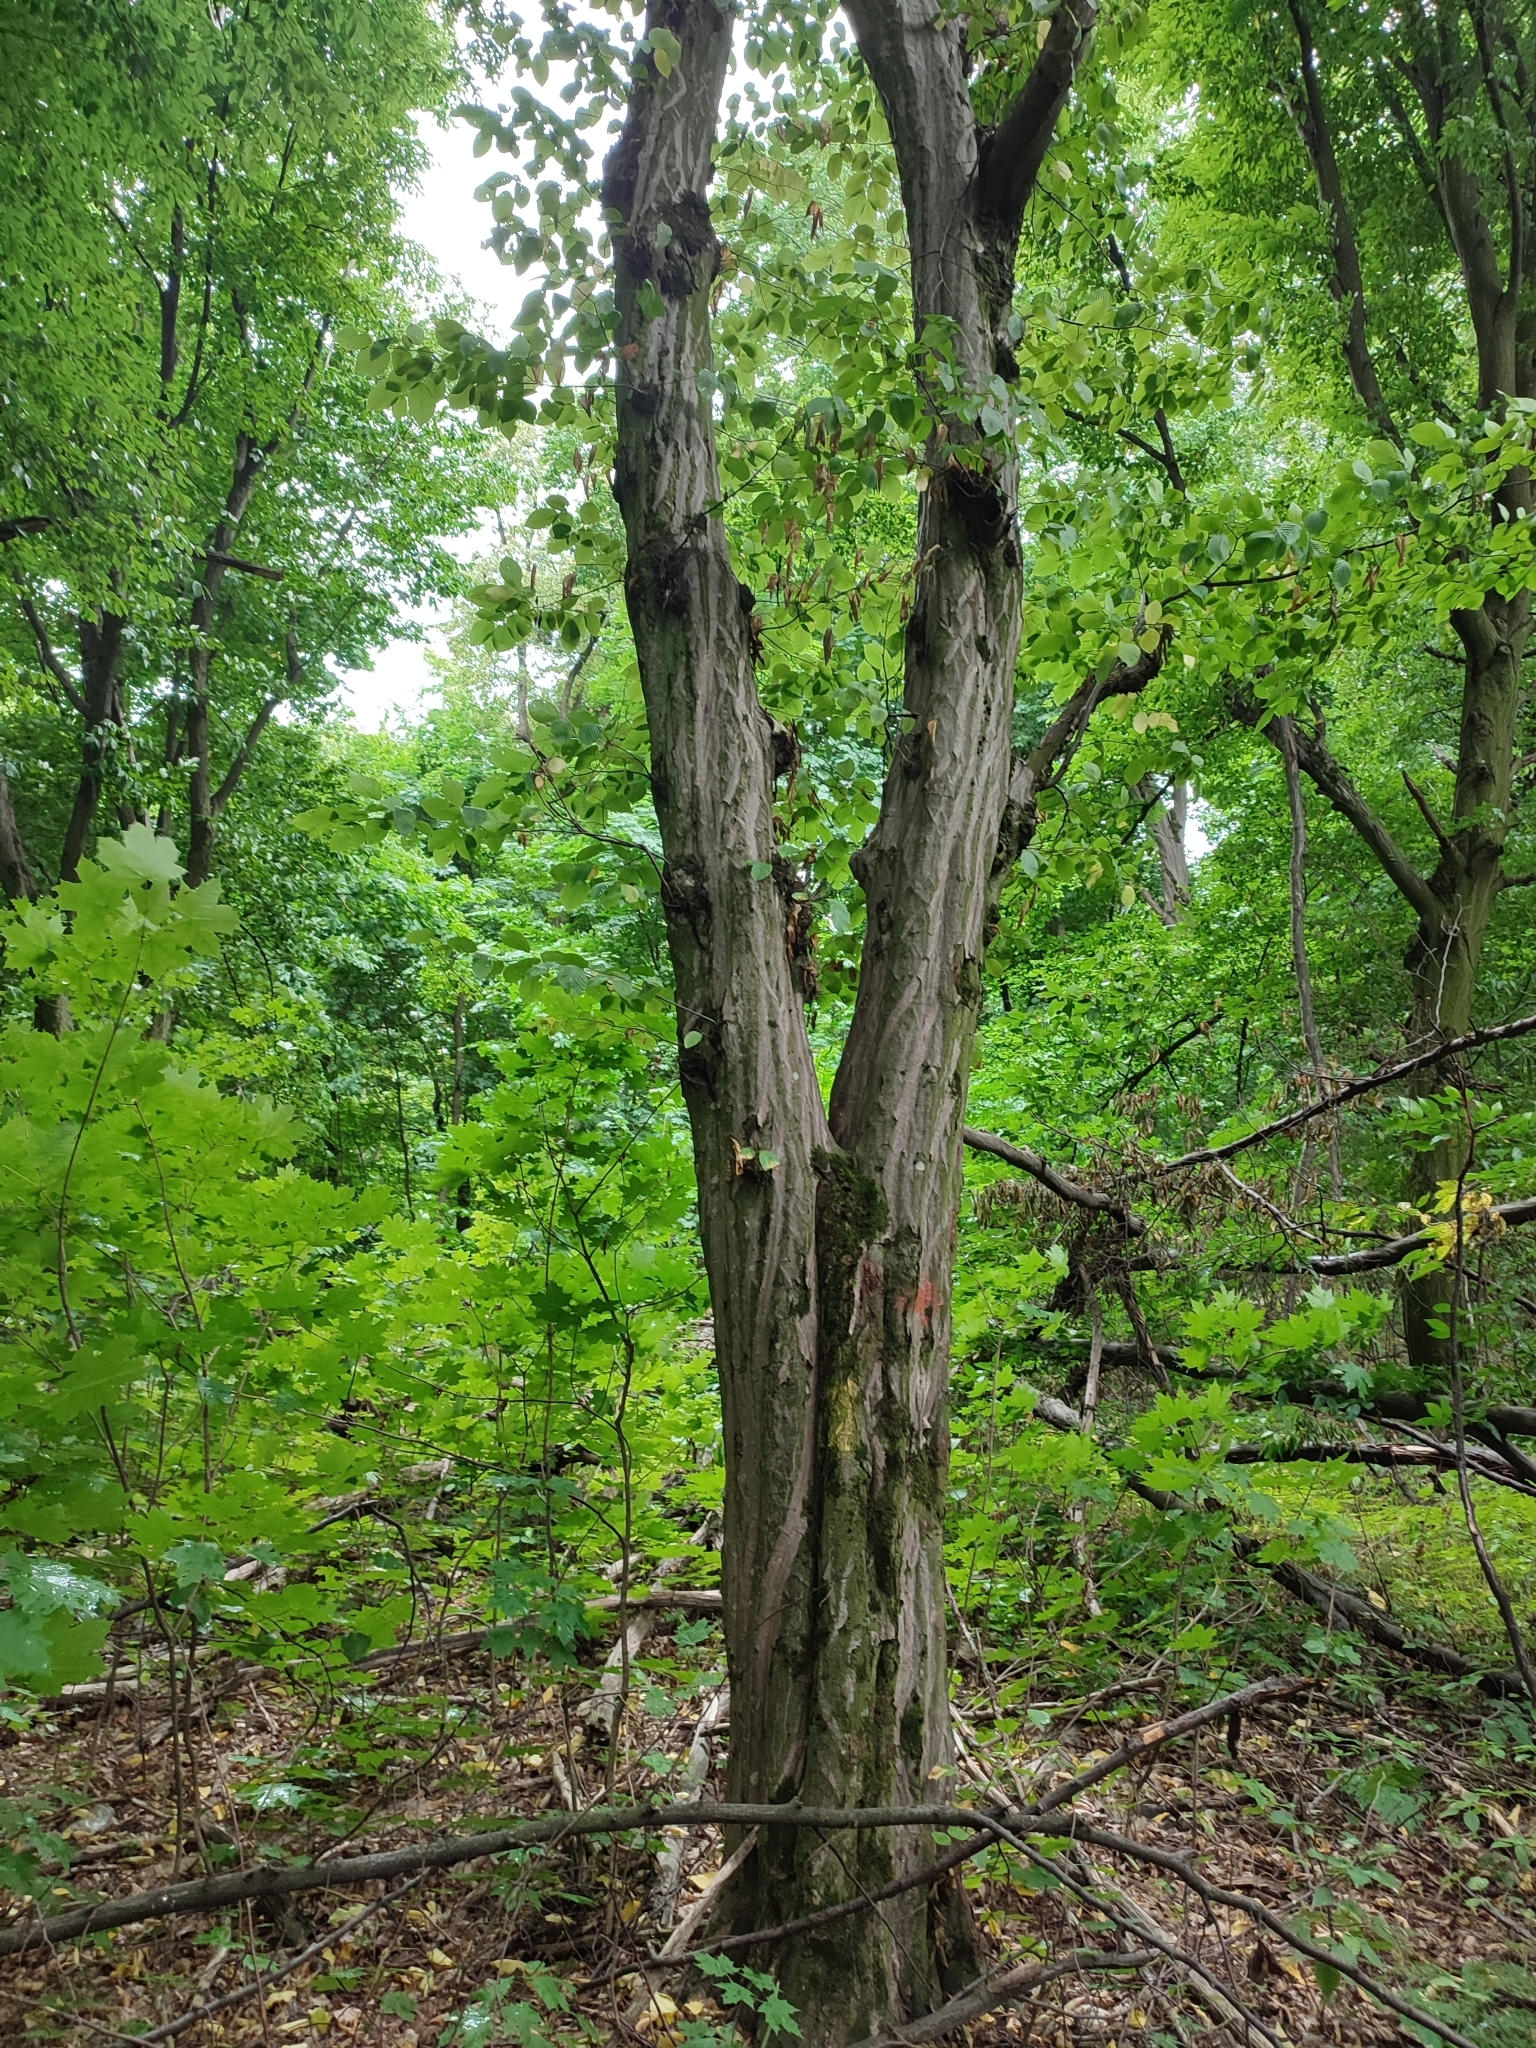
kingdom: Plantae
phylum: Tracheophyta
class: Magnoliopsida
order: Fagales
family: Betulaceae
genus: Carpinus
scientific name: Carpinus betulus
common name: Hornbeam
